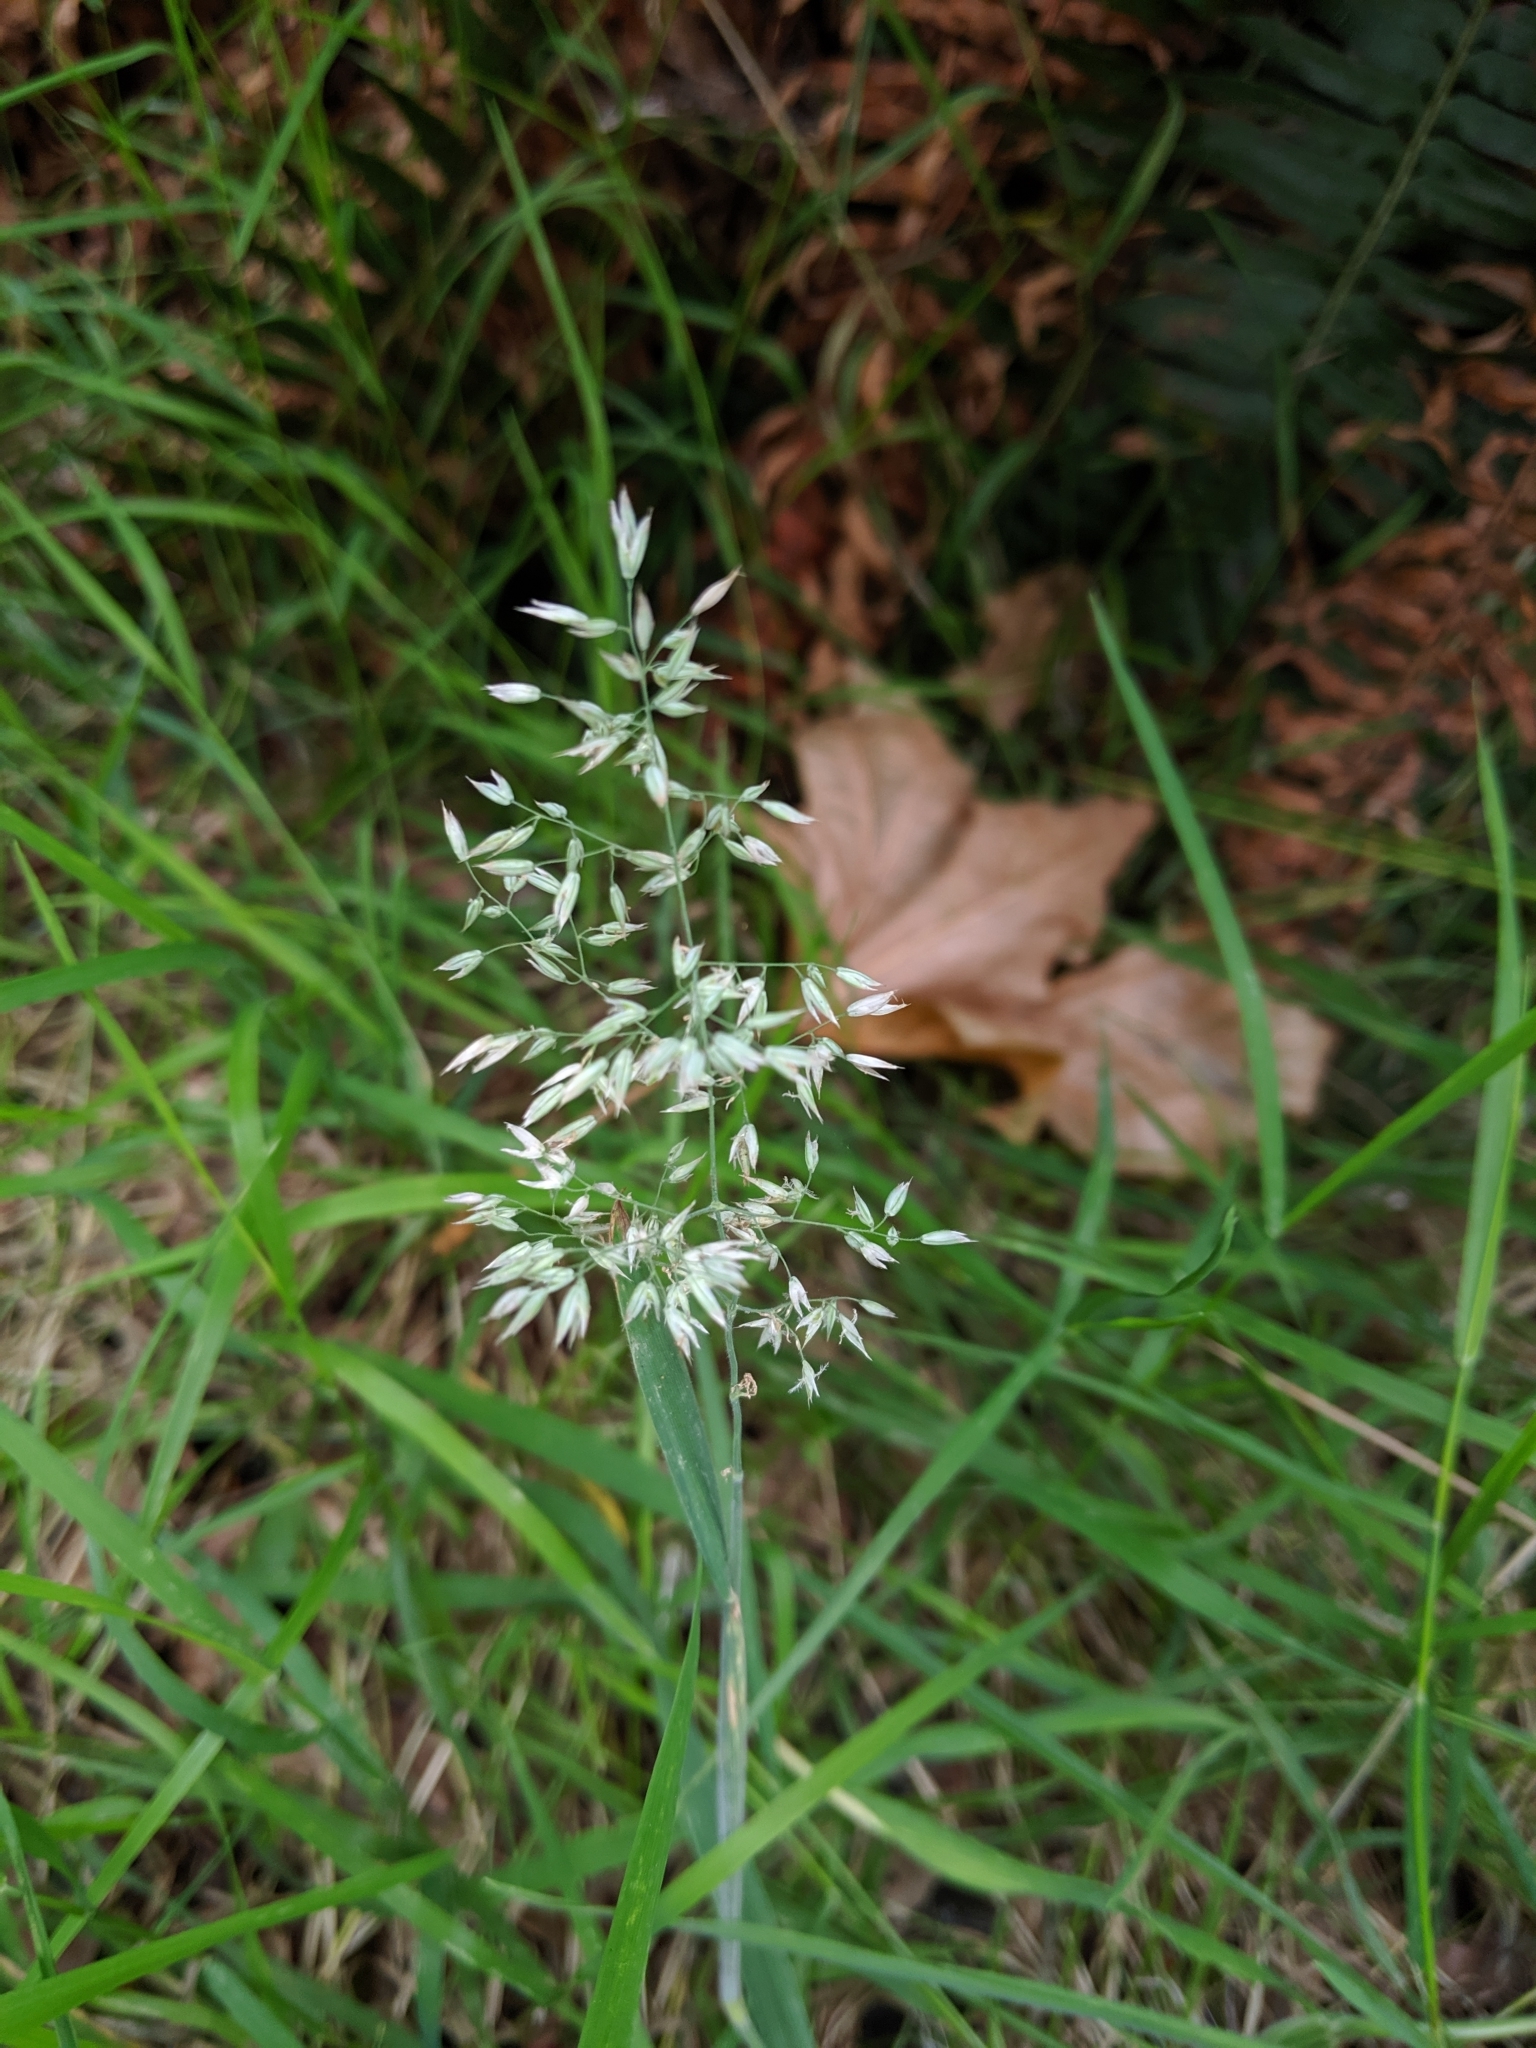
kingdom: Plantae
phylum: Tracheophyta
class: Liliopsida
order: Poales
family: Poaceae
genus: Holcus
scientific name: Holcus lanatus
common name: Yorkshire-fog
